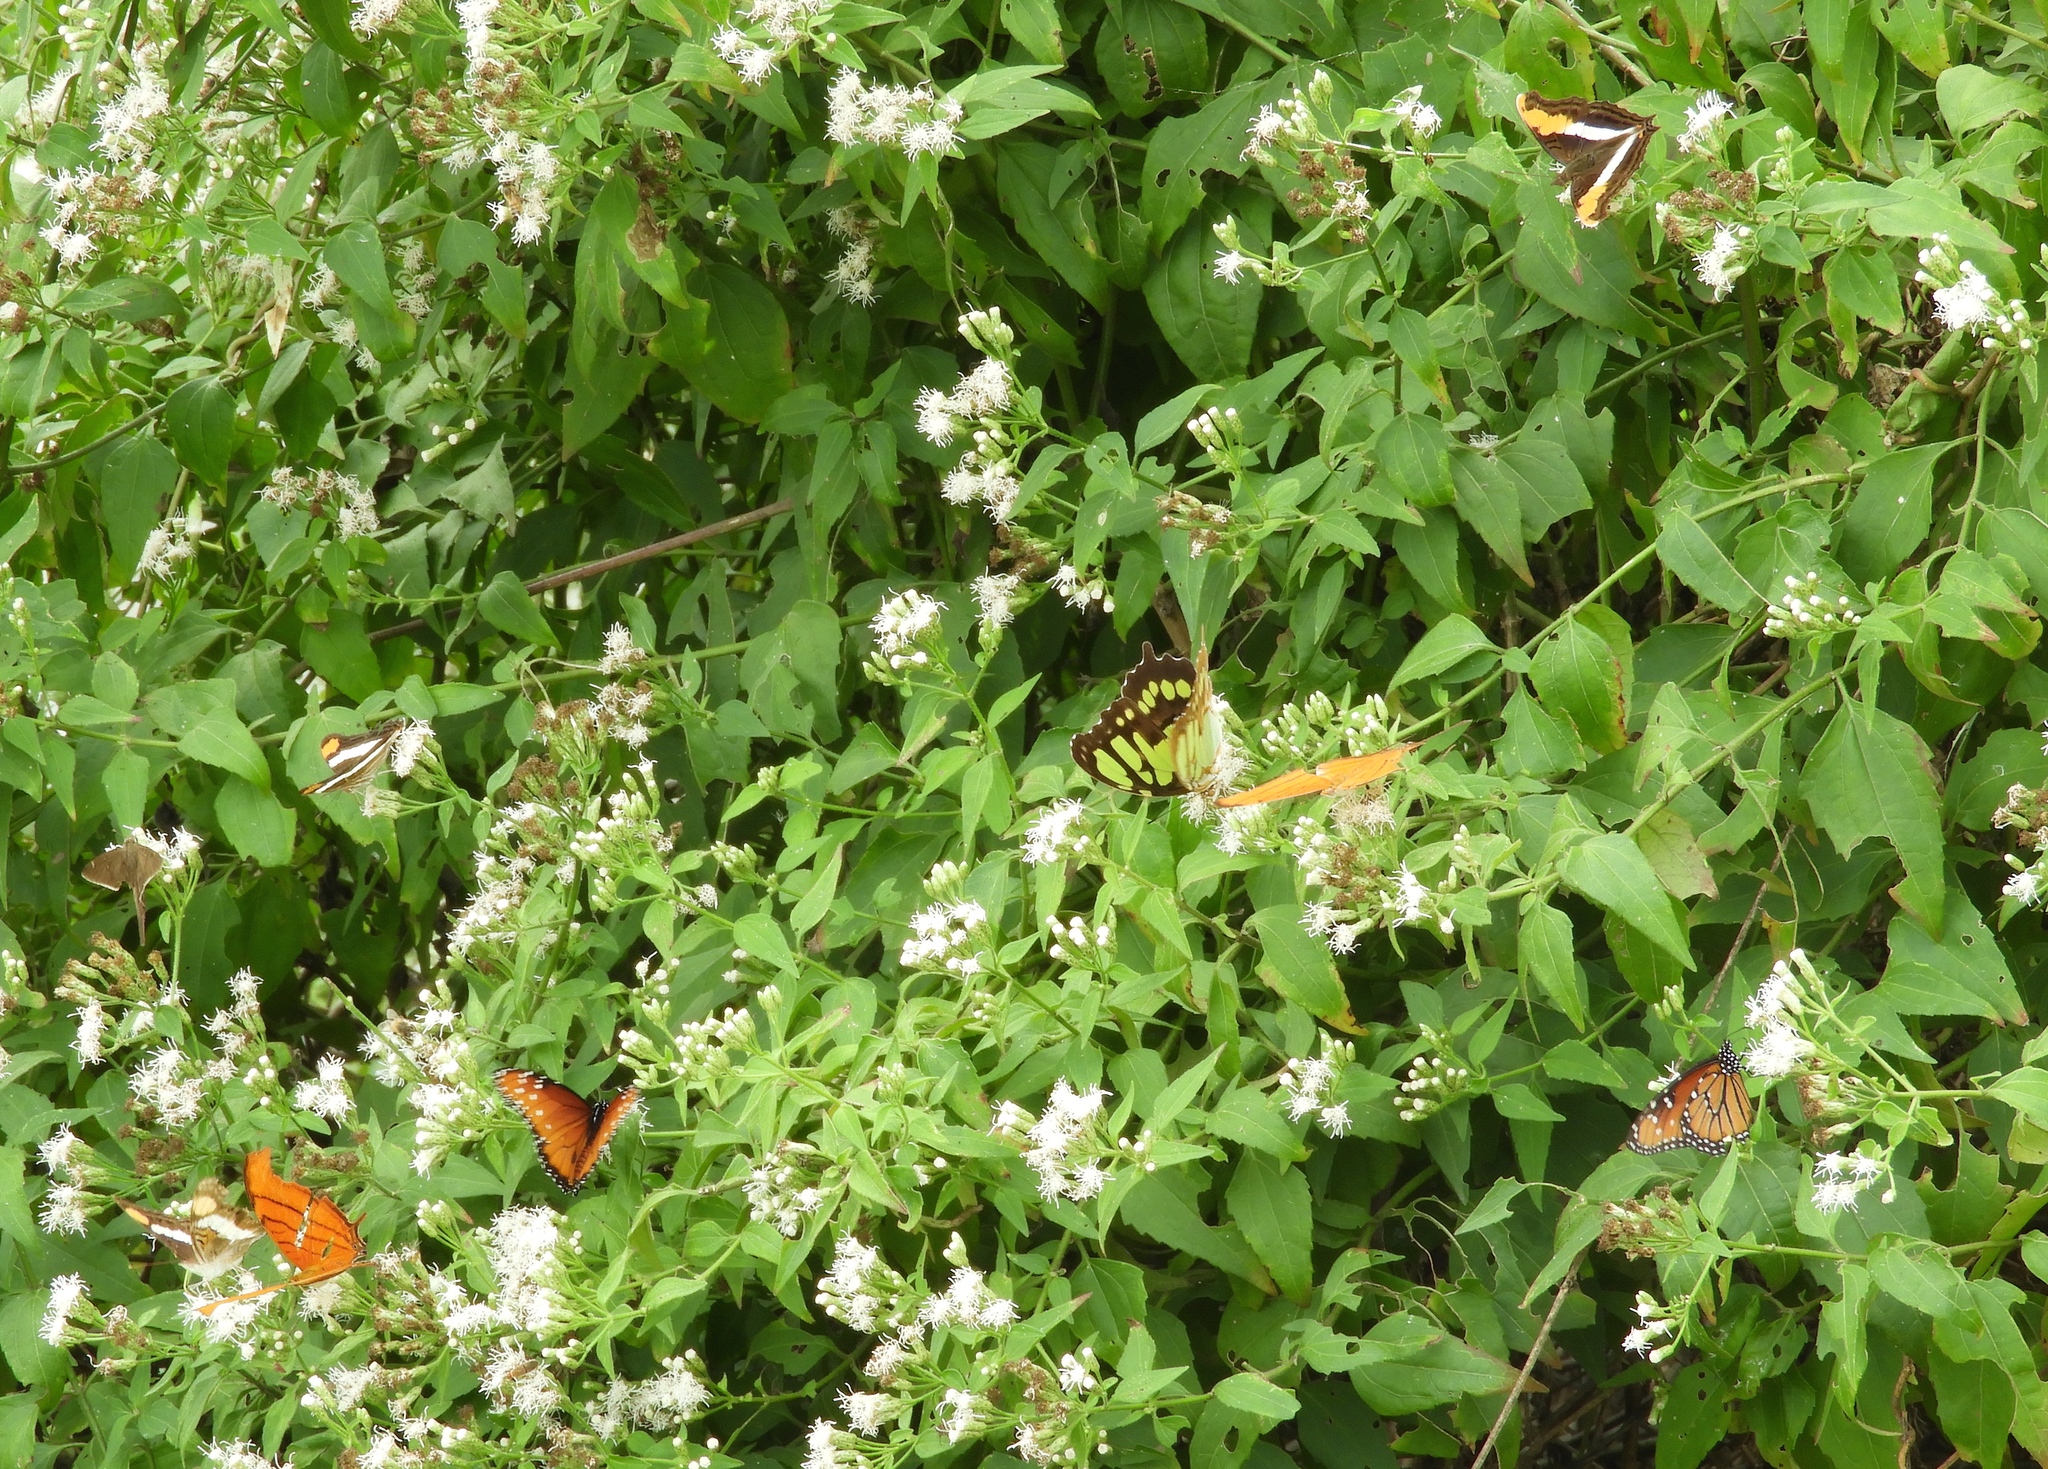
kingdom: Plantae
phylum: Tracheophyta
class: Magnoliopsida
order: Asterales
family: Asteraceae
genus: Chromolaena
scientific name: Chromolaena odorata
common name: Siamweed
